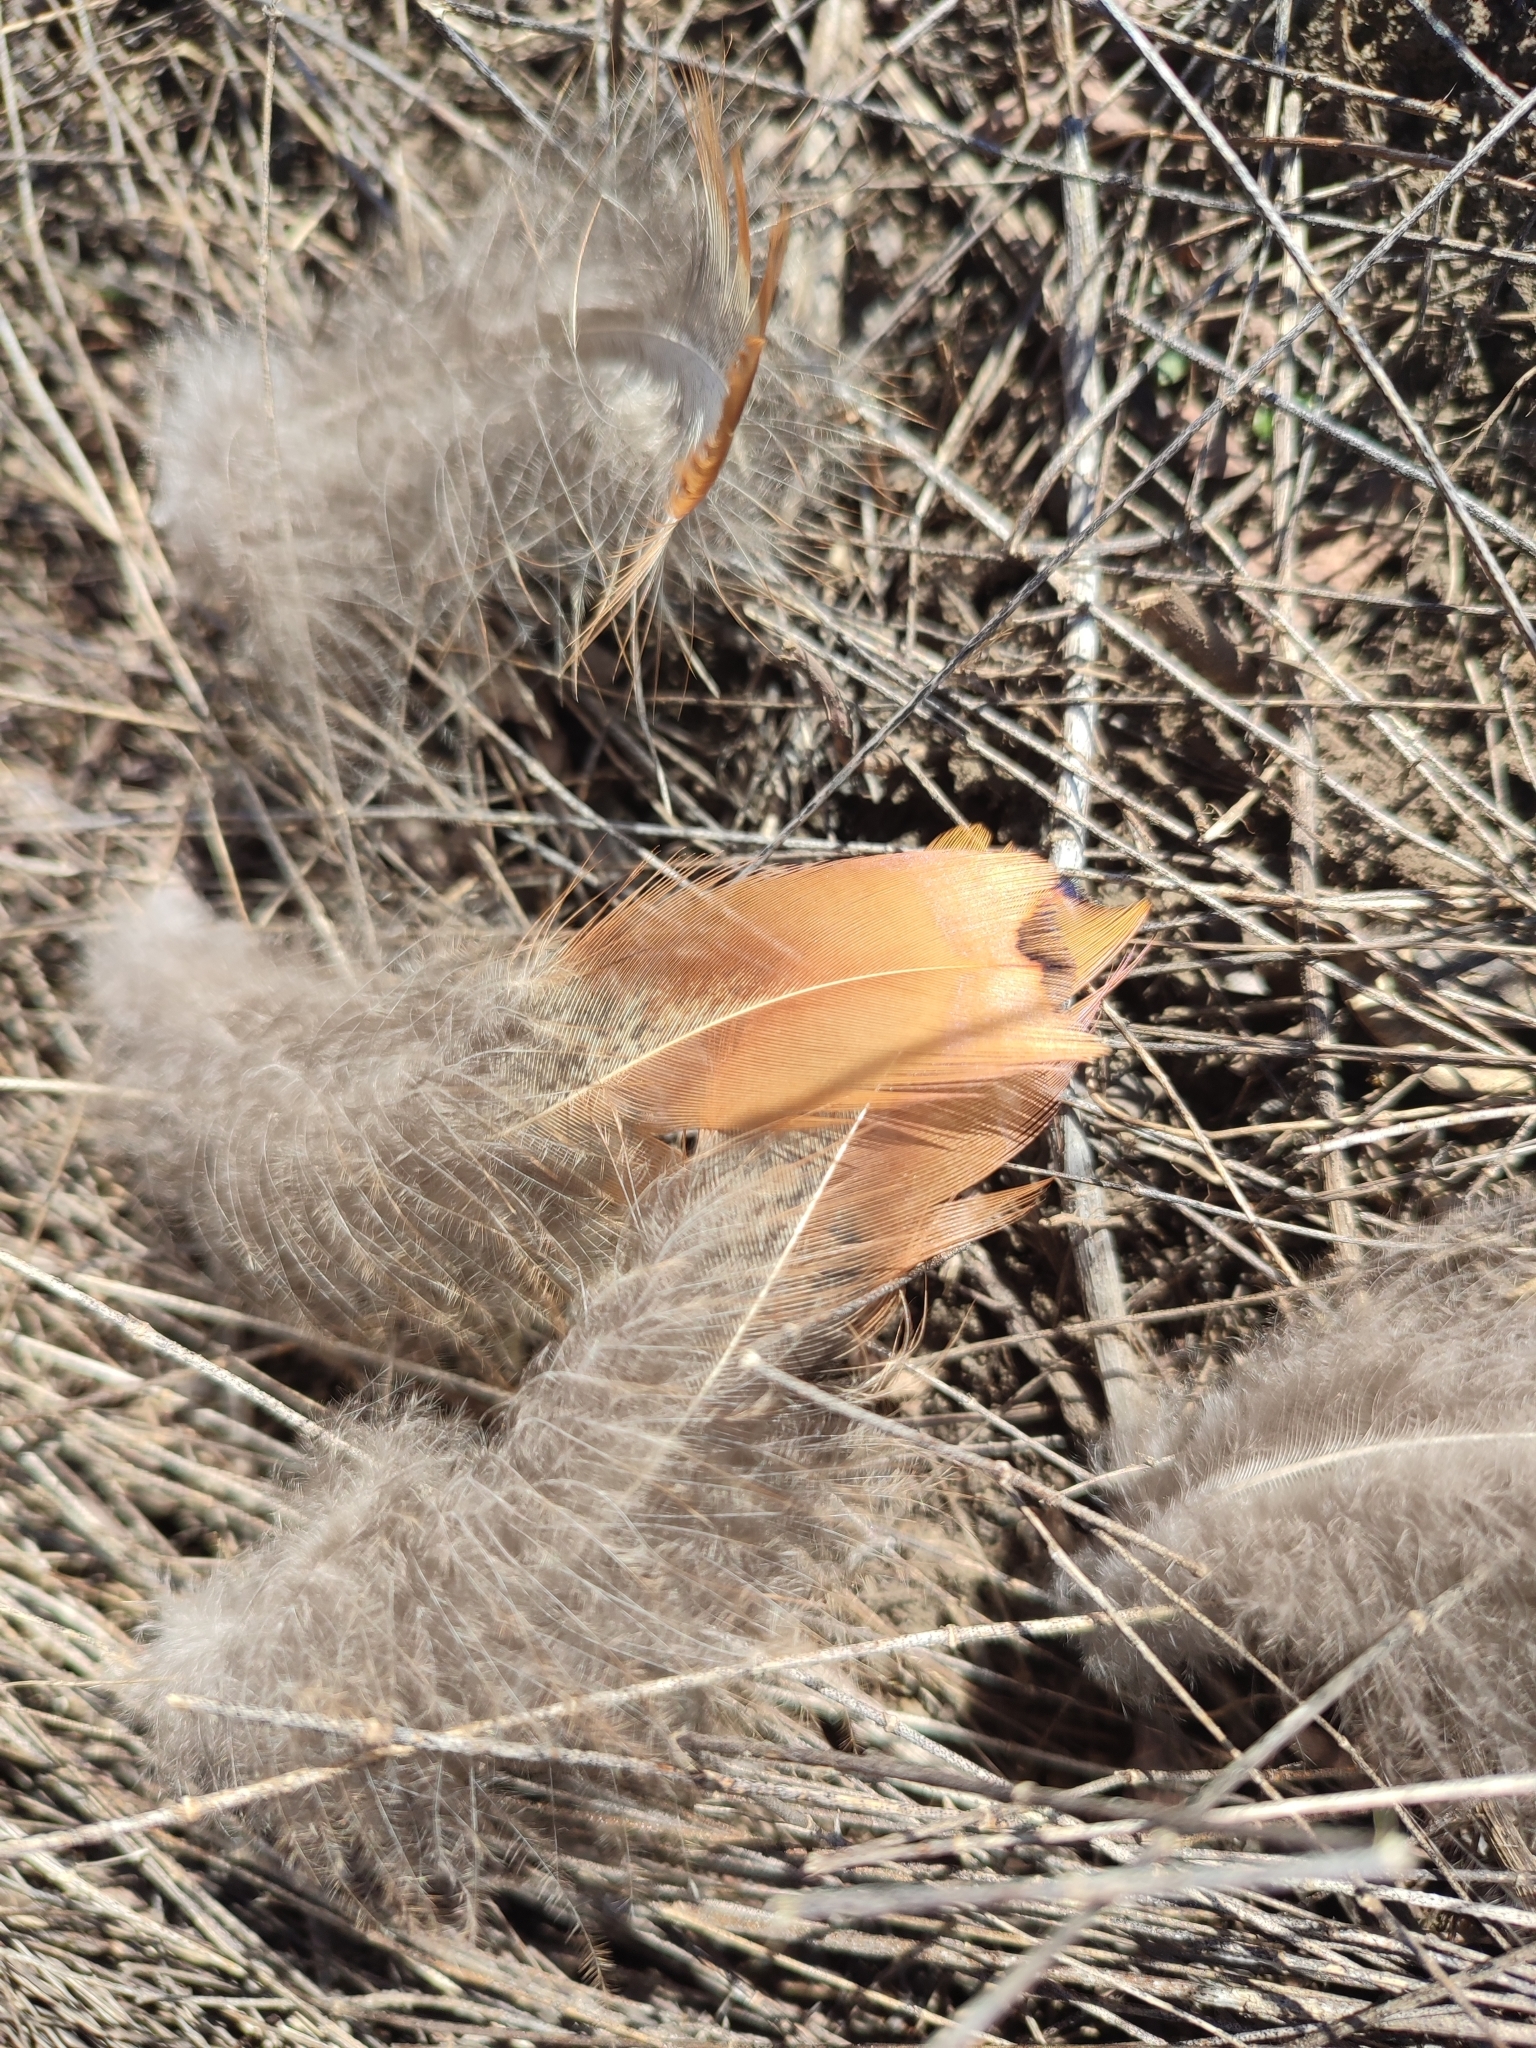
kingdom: Animalia
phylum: Chordata
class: Aves
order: Galliformes
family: Phasianidae
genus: Phasianus
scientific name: Phasianus colchicus
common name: Common pheasant
